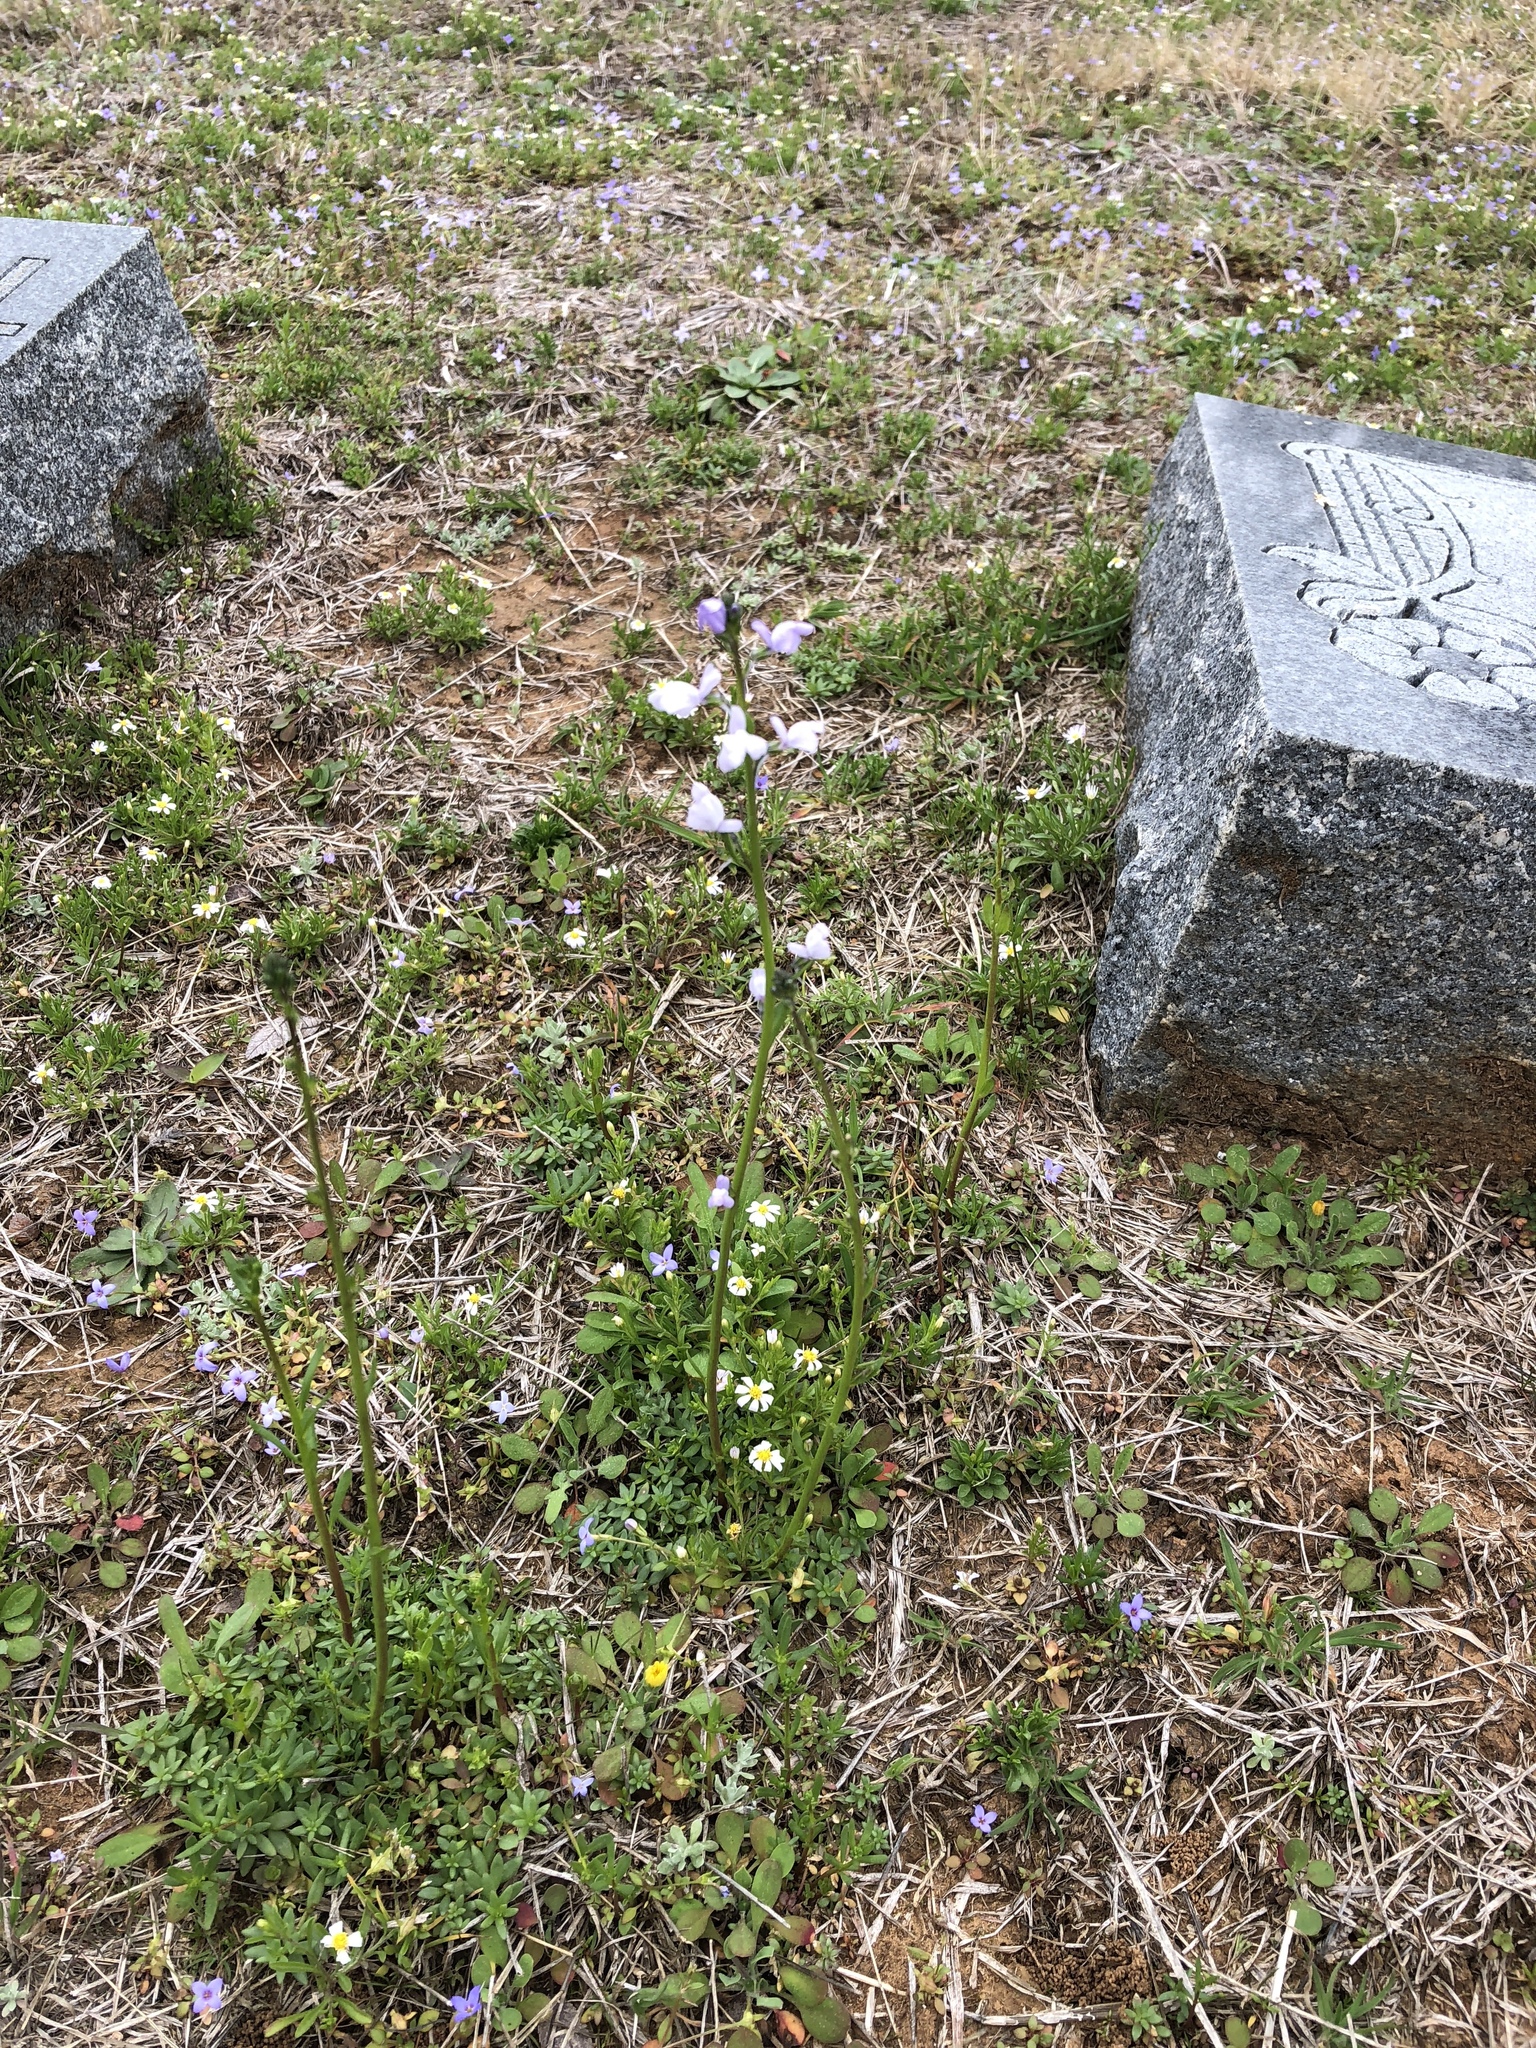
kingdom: Plantae
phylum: Tracheophyta
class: Magnoliopsida
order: Lamiales
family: Plantaginaceae
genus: Nuttallanthus
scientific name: Nuttallanthus texanus
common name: Texas toadflax
